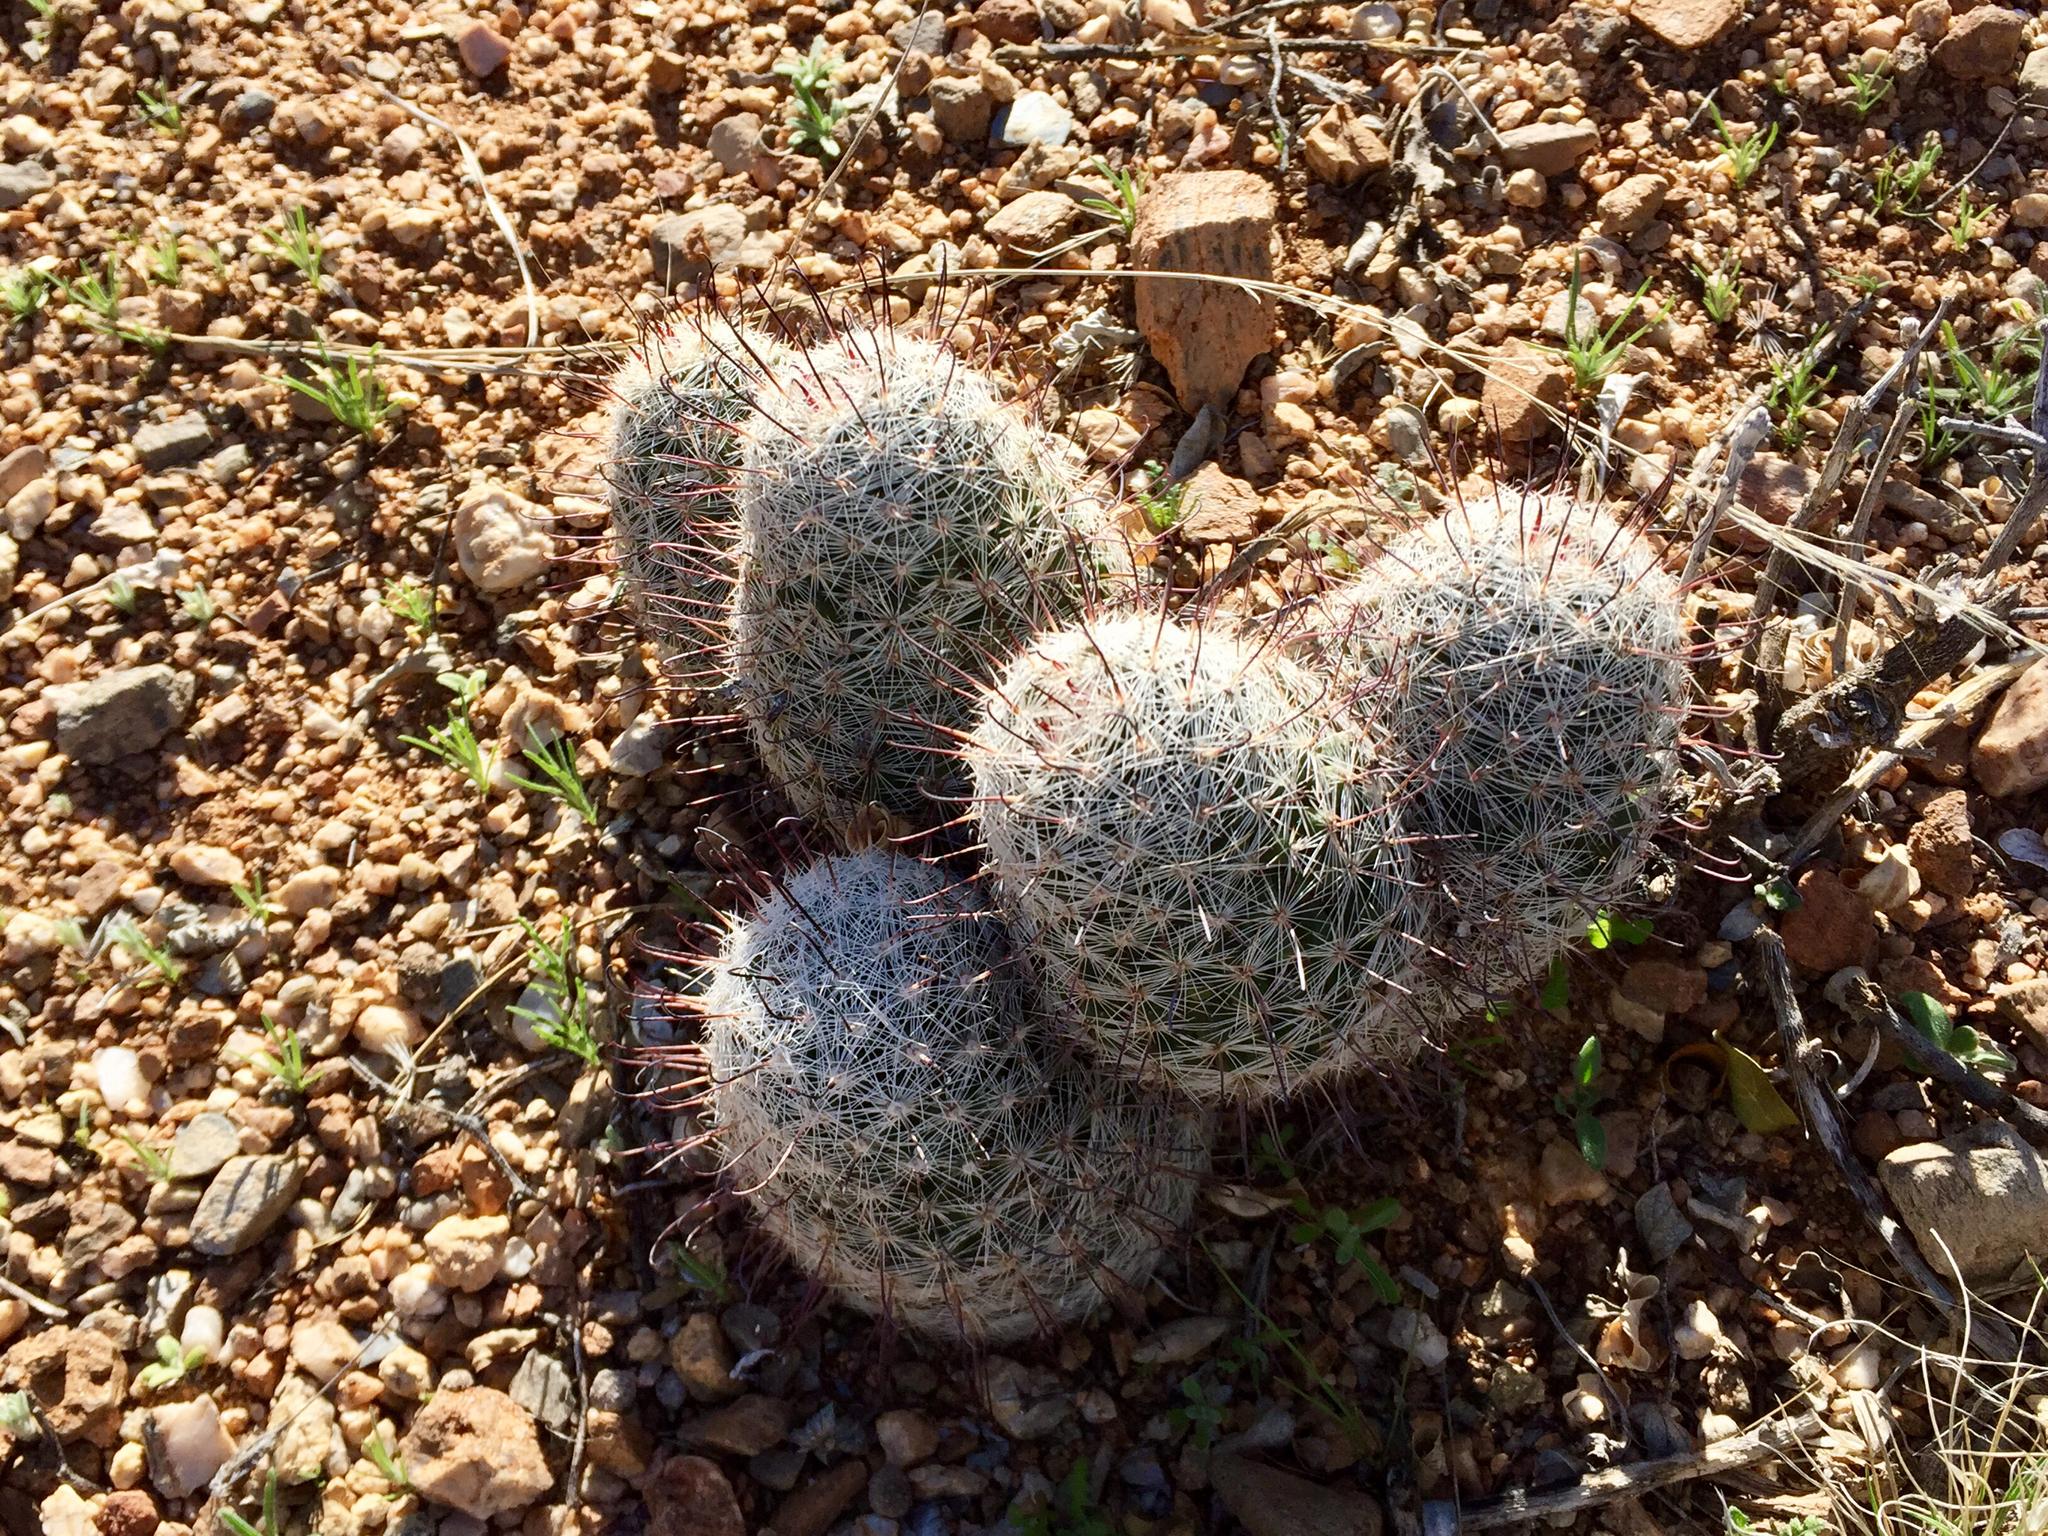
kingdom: Plantae
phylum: Tracheophyta
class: Magnoliopsida
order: Caryophyllales
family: Cactaceae
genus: Cochemiea
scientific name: Cochemiea grahamii
